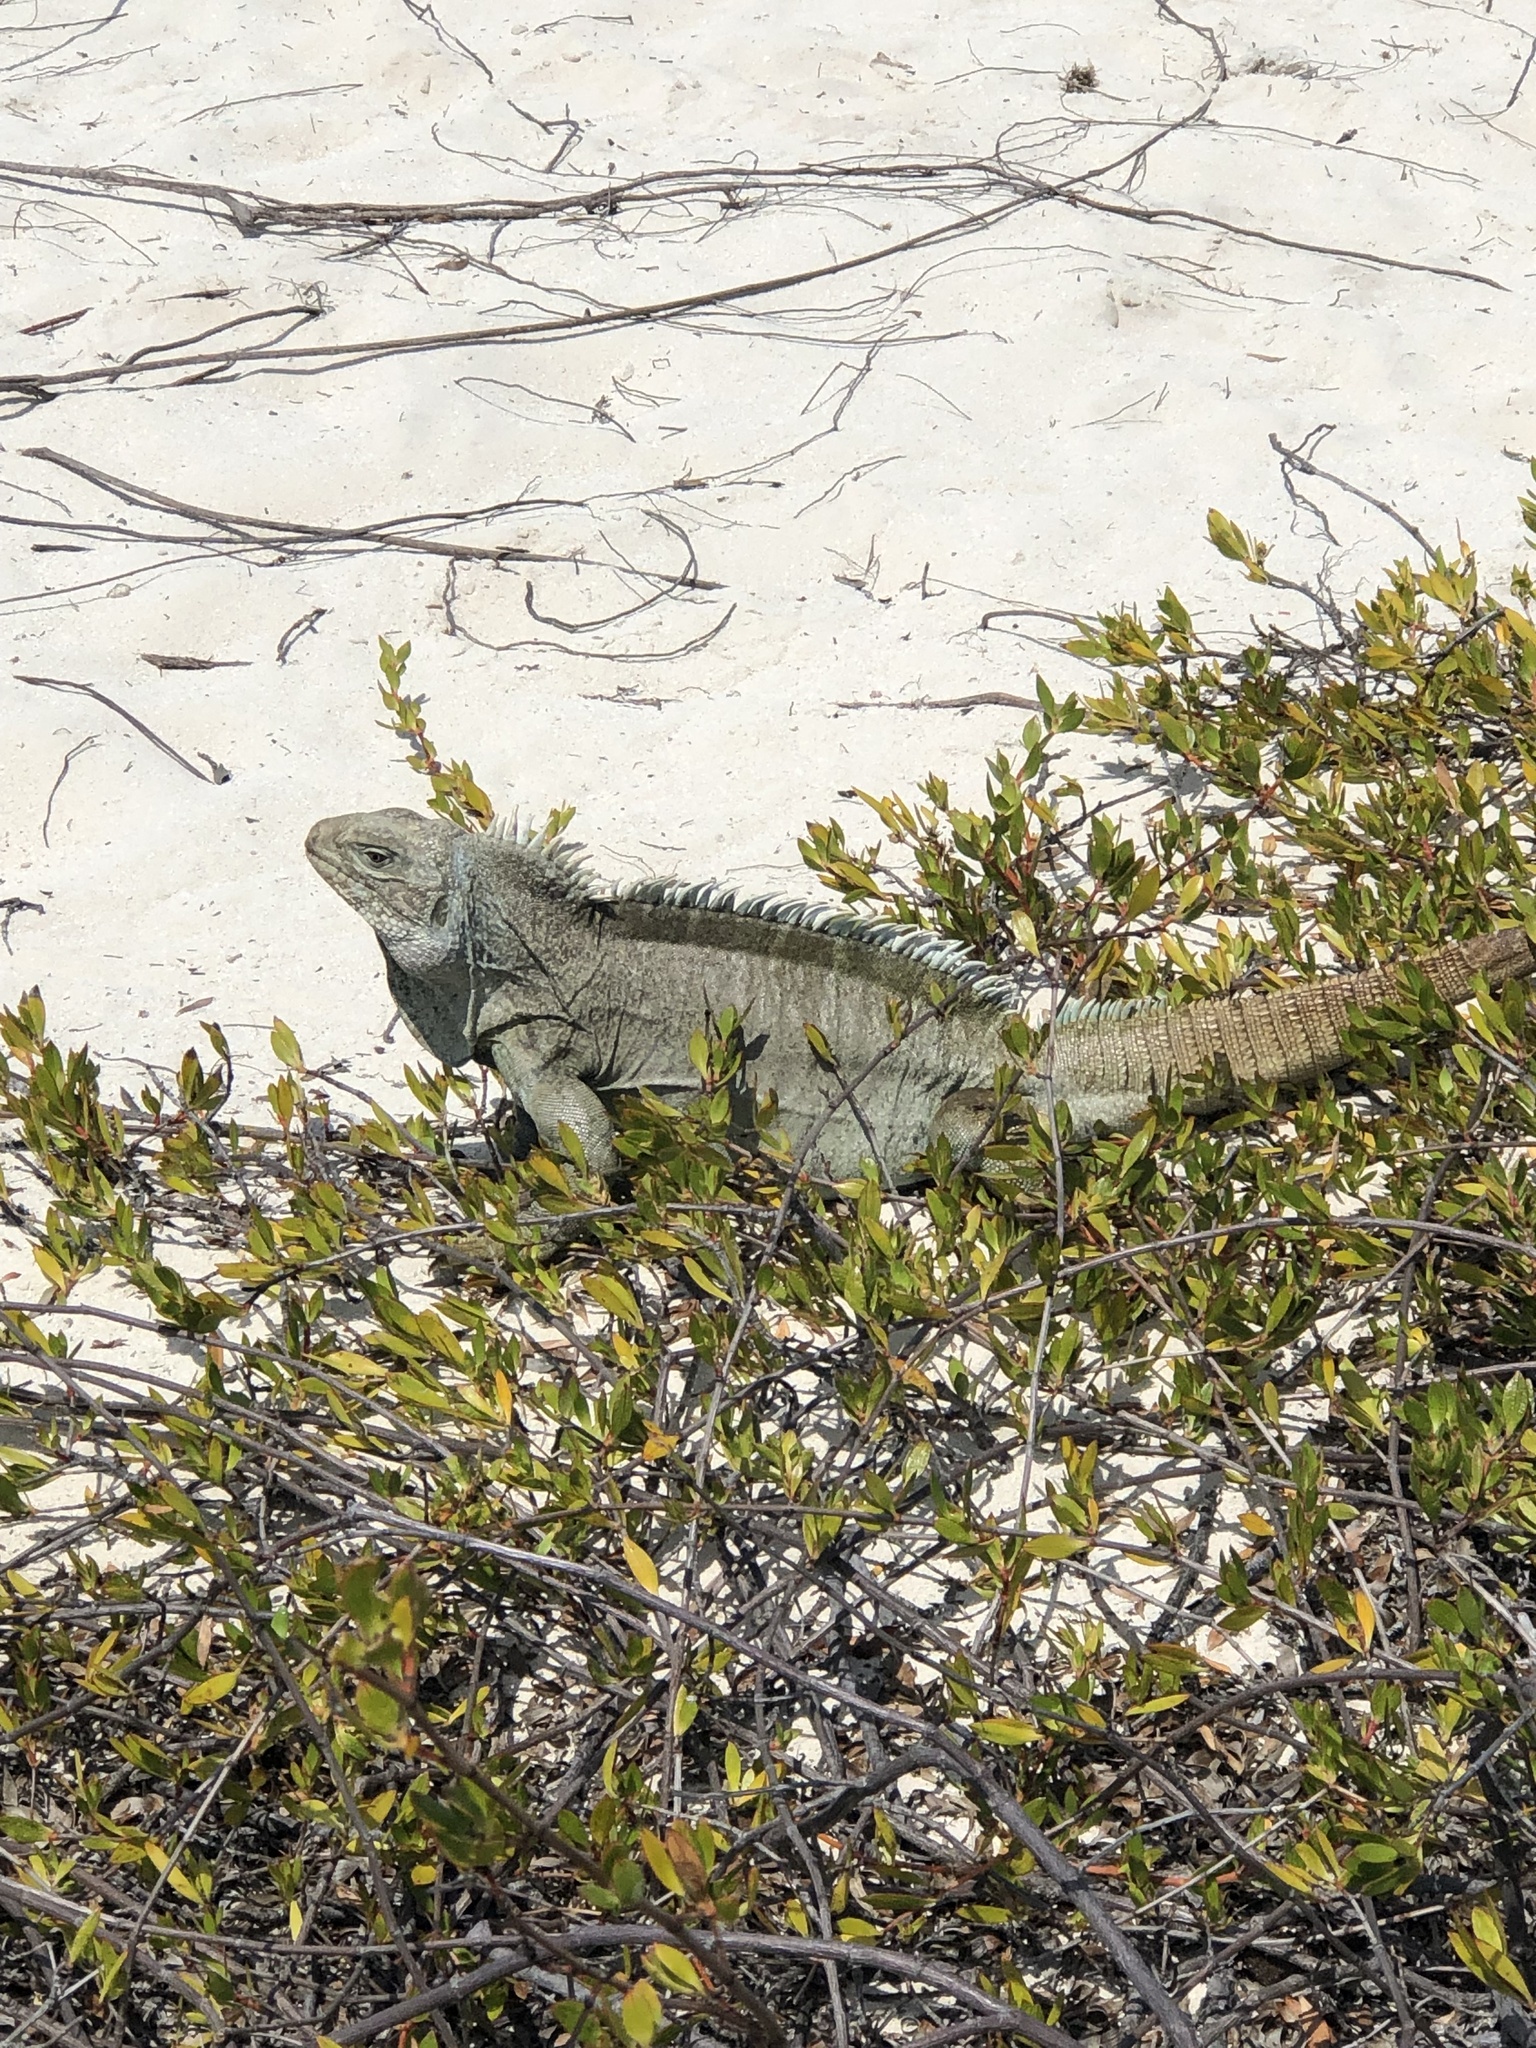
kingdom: Animalia
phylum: Chordata
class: Squamata
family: Iguanidae
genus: Cyclura
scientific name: Cyclura carinata
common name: Turks island iguana
